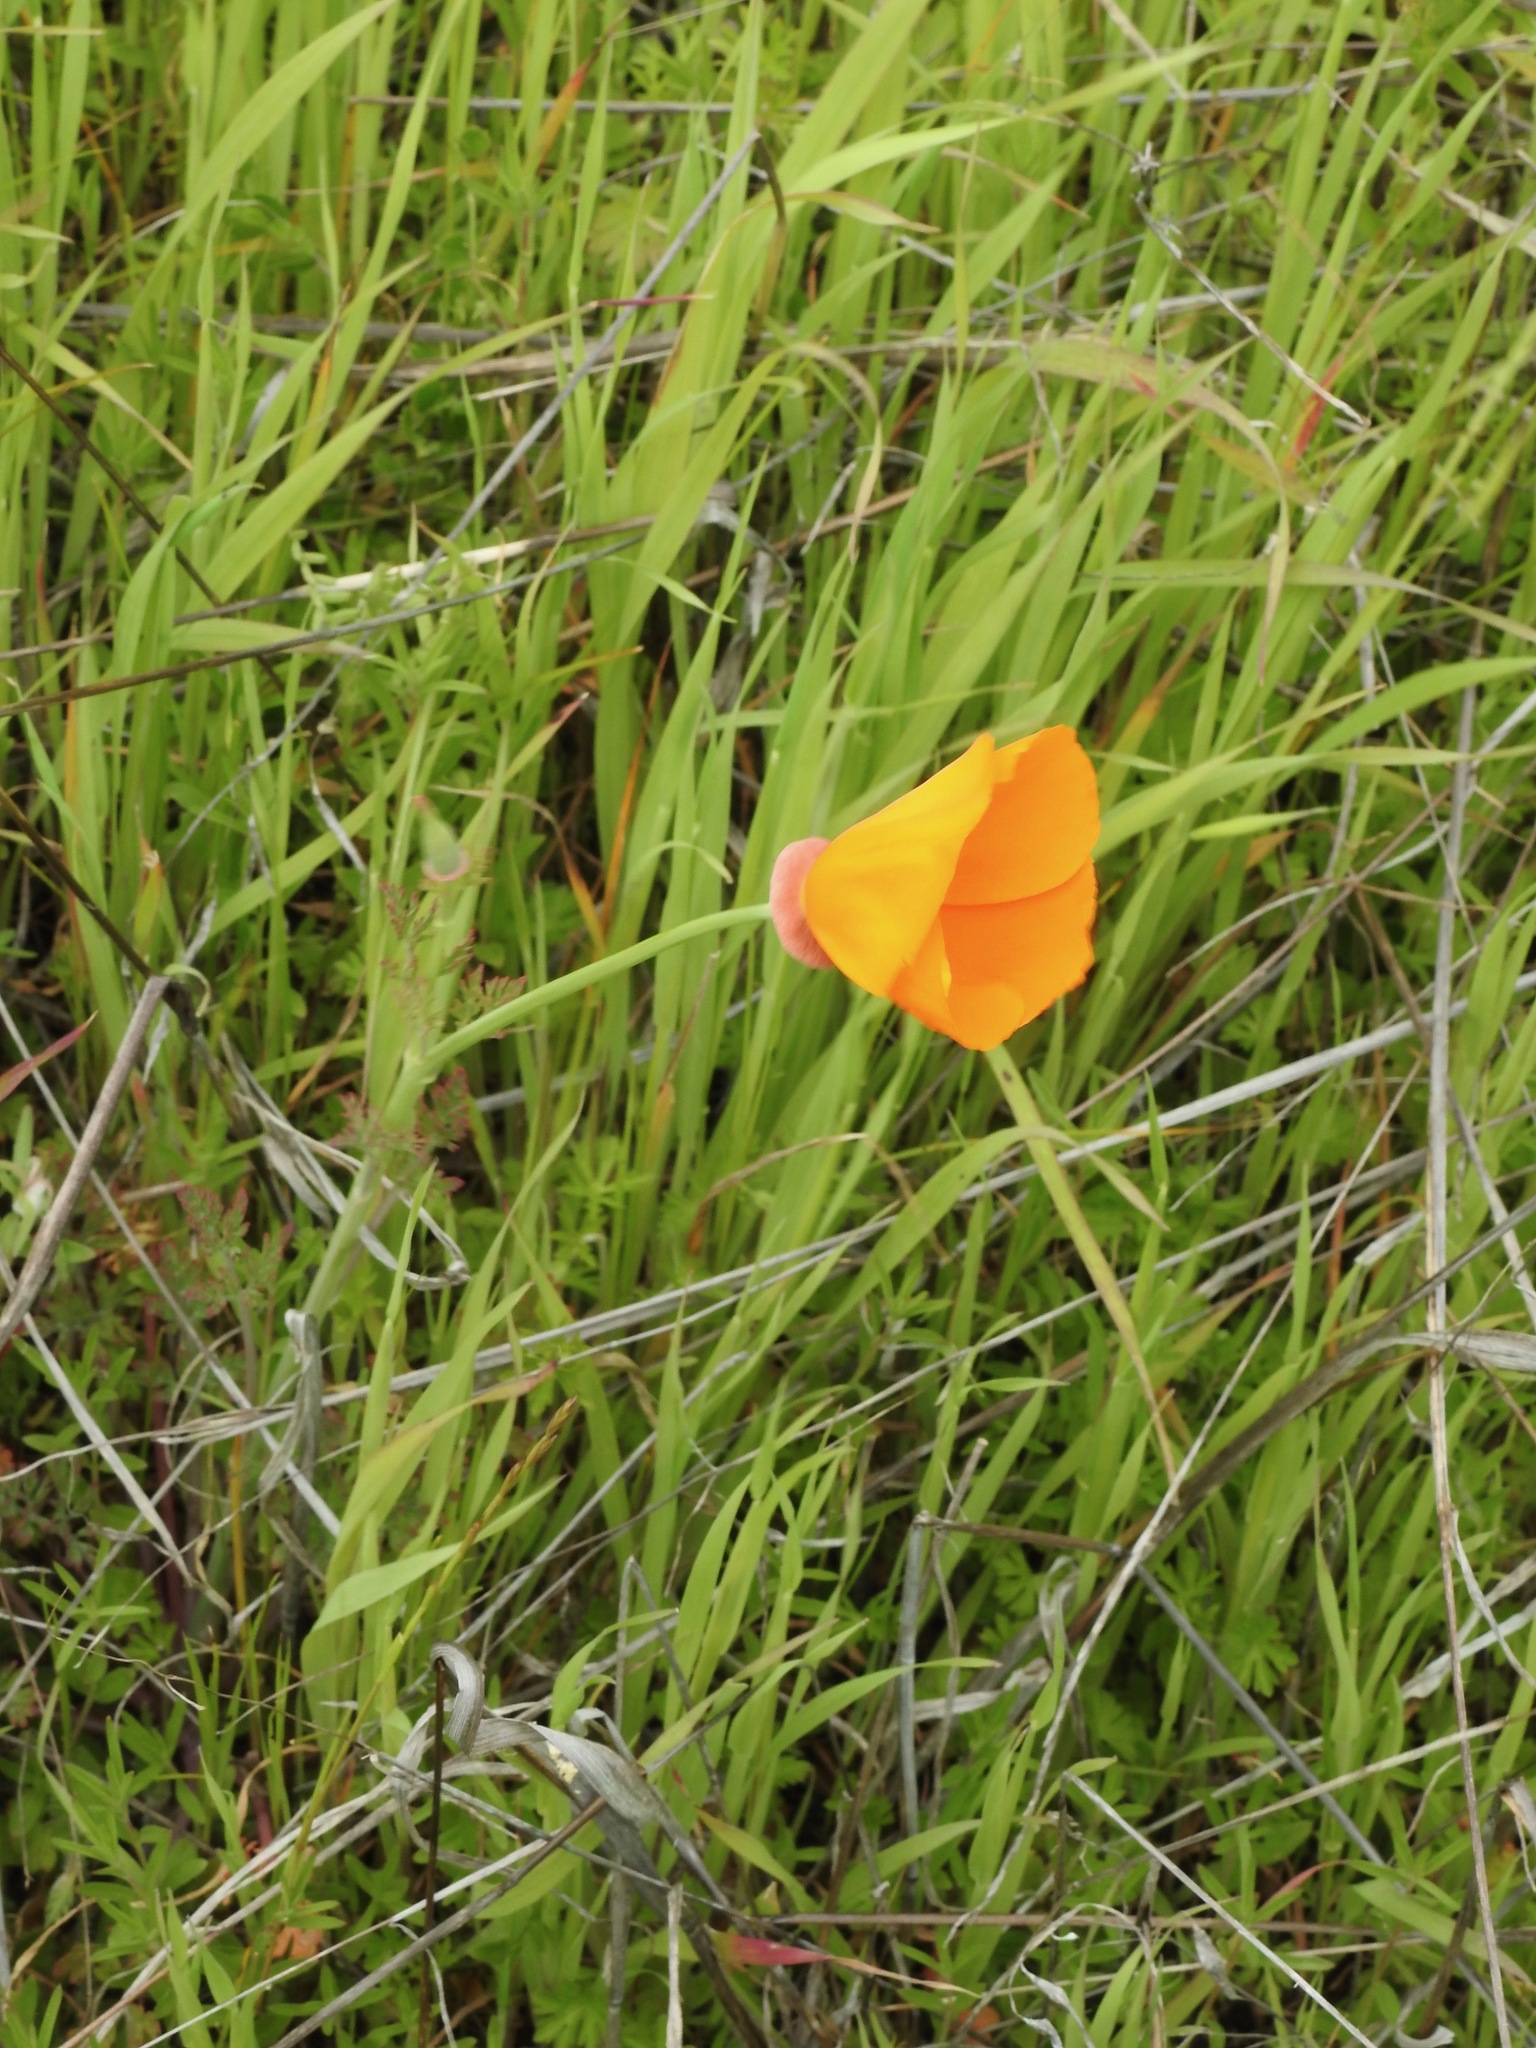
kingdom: Plantae
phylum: Tracheophyta
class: Magnoliopsida
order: Ranunculales
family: Papaveraceae
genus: Eschscholzia
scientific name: Eschscholzia californica
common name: California poppy
